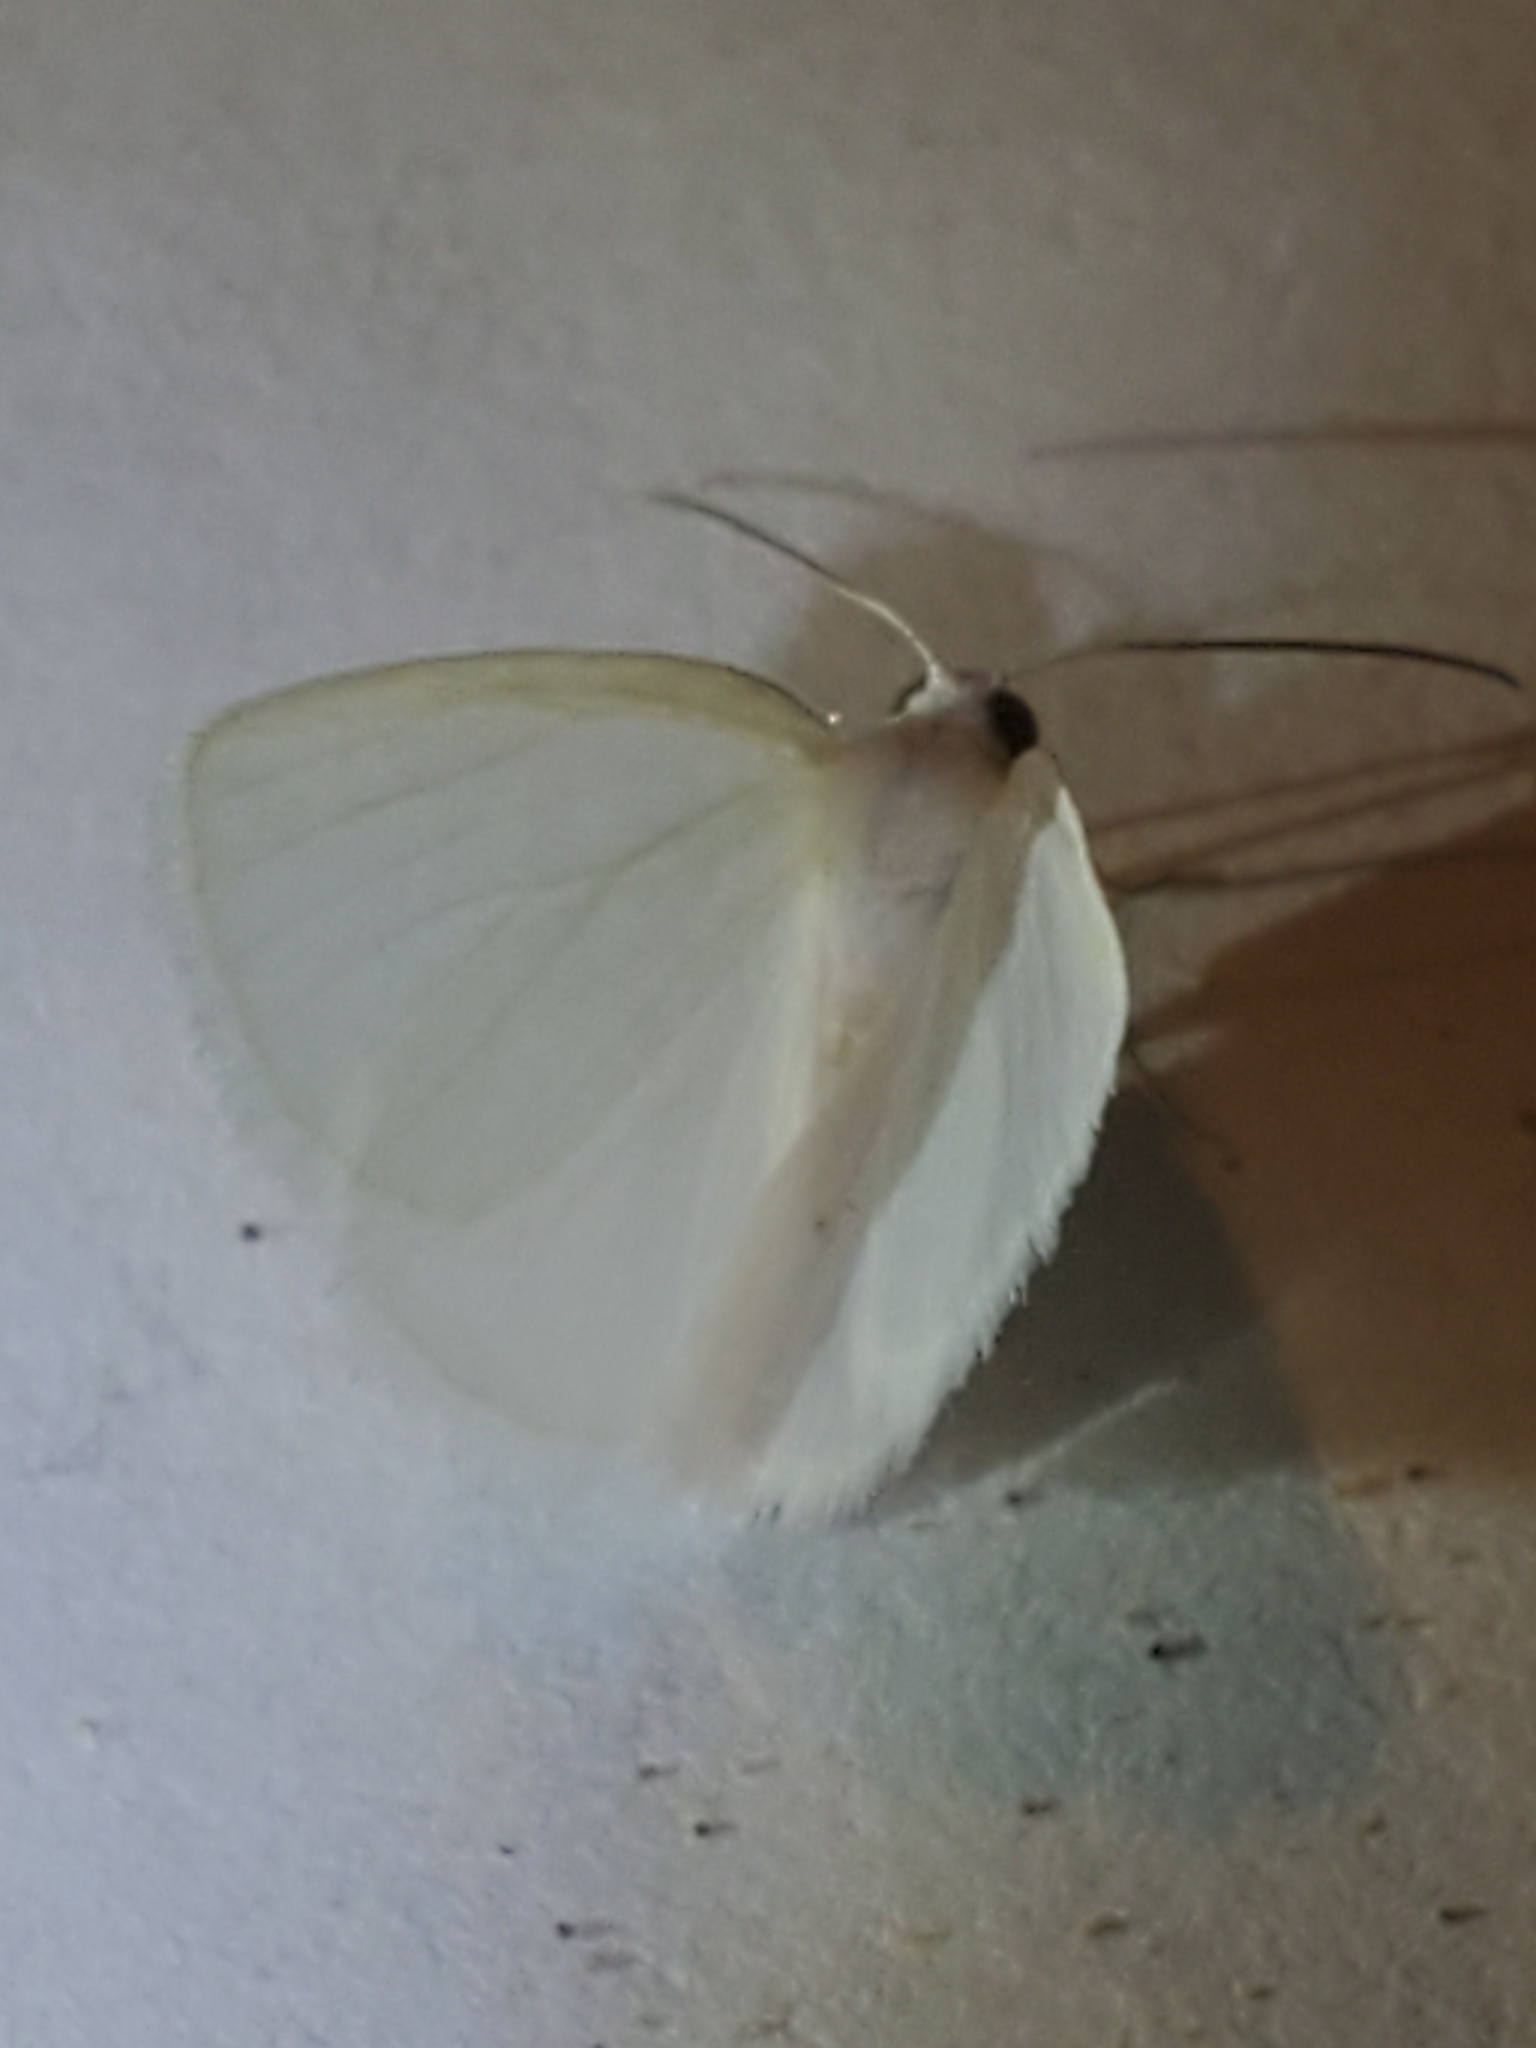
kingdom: Animalia
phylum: Arthropoda
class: Insecta
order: Lepidoptera
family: Geometridae
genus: Lomographa
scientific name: Lomographa vestaliata
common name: White spring moth
